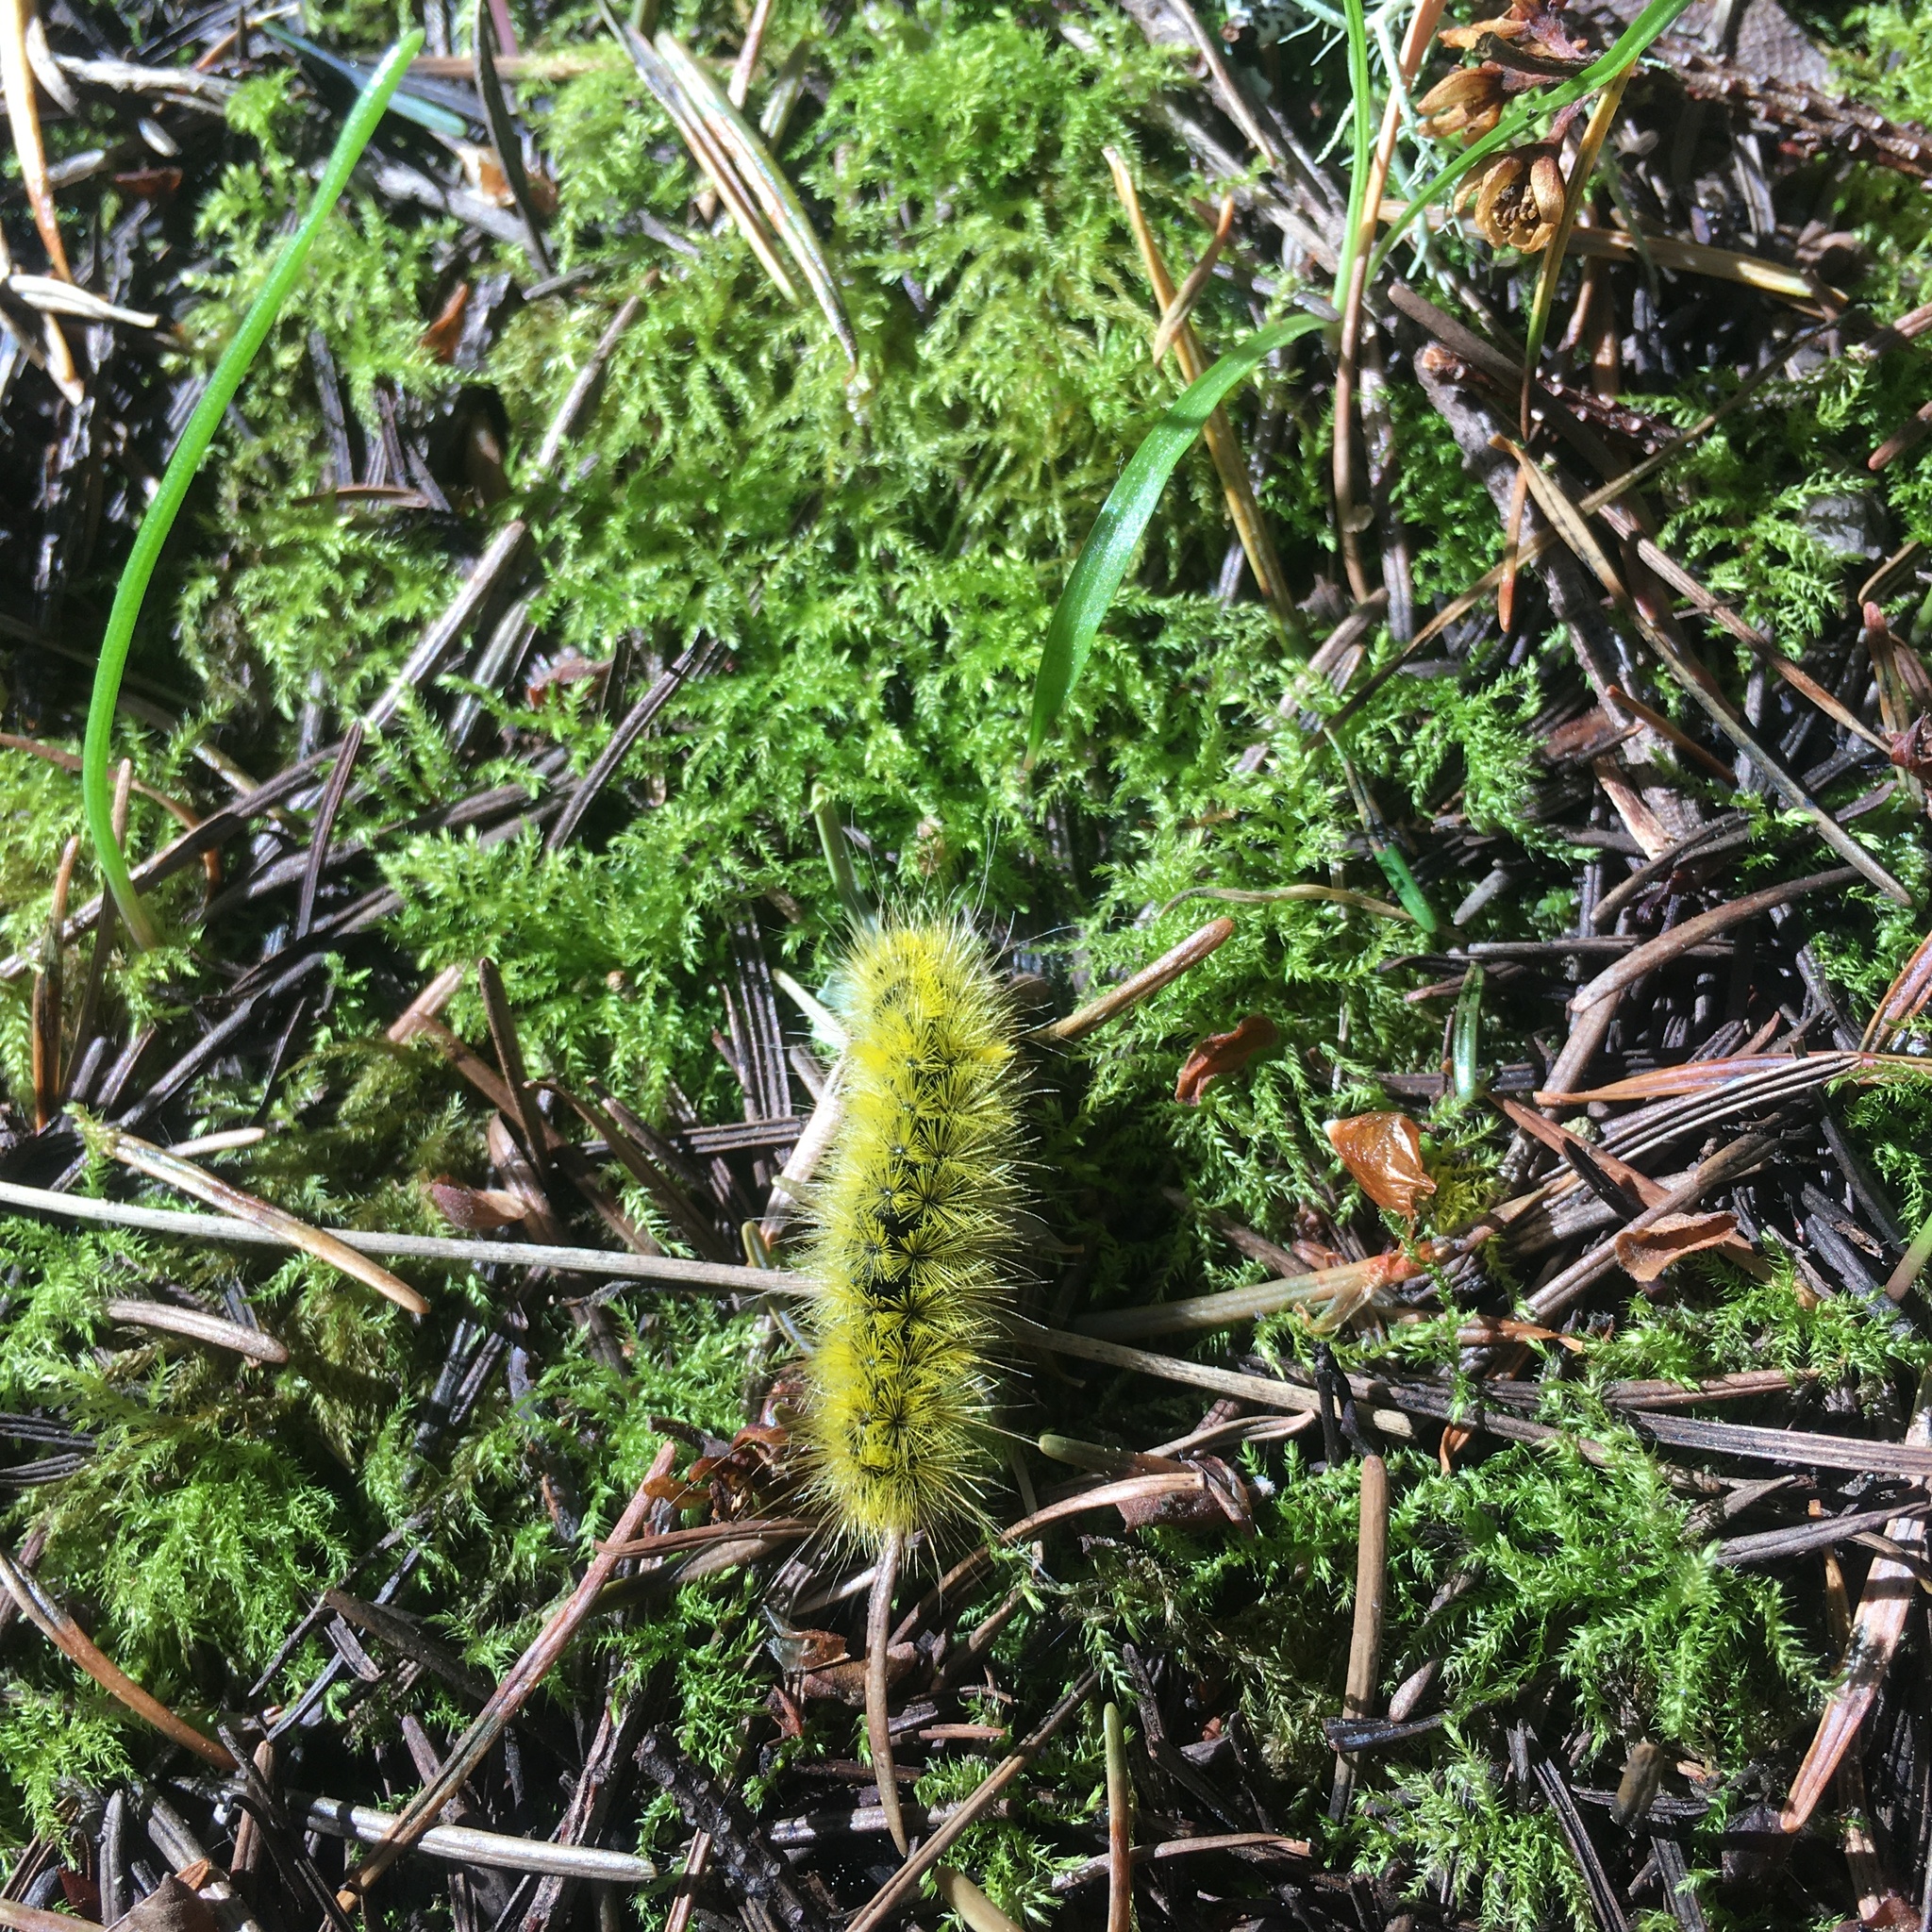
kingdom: Animalia
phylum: Arthropoda
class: Insecta
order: Lepidoptera
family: Erebidae
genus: Lophocampa
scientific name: Lophocampa argentata
